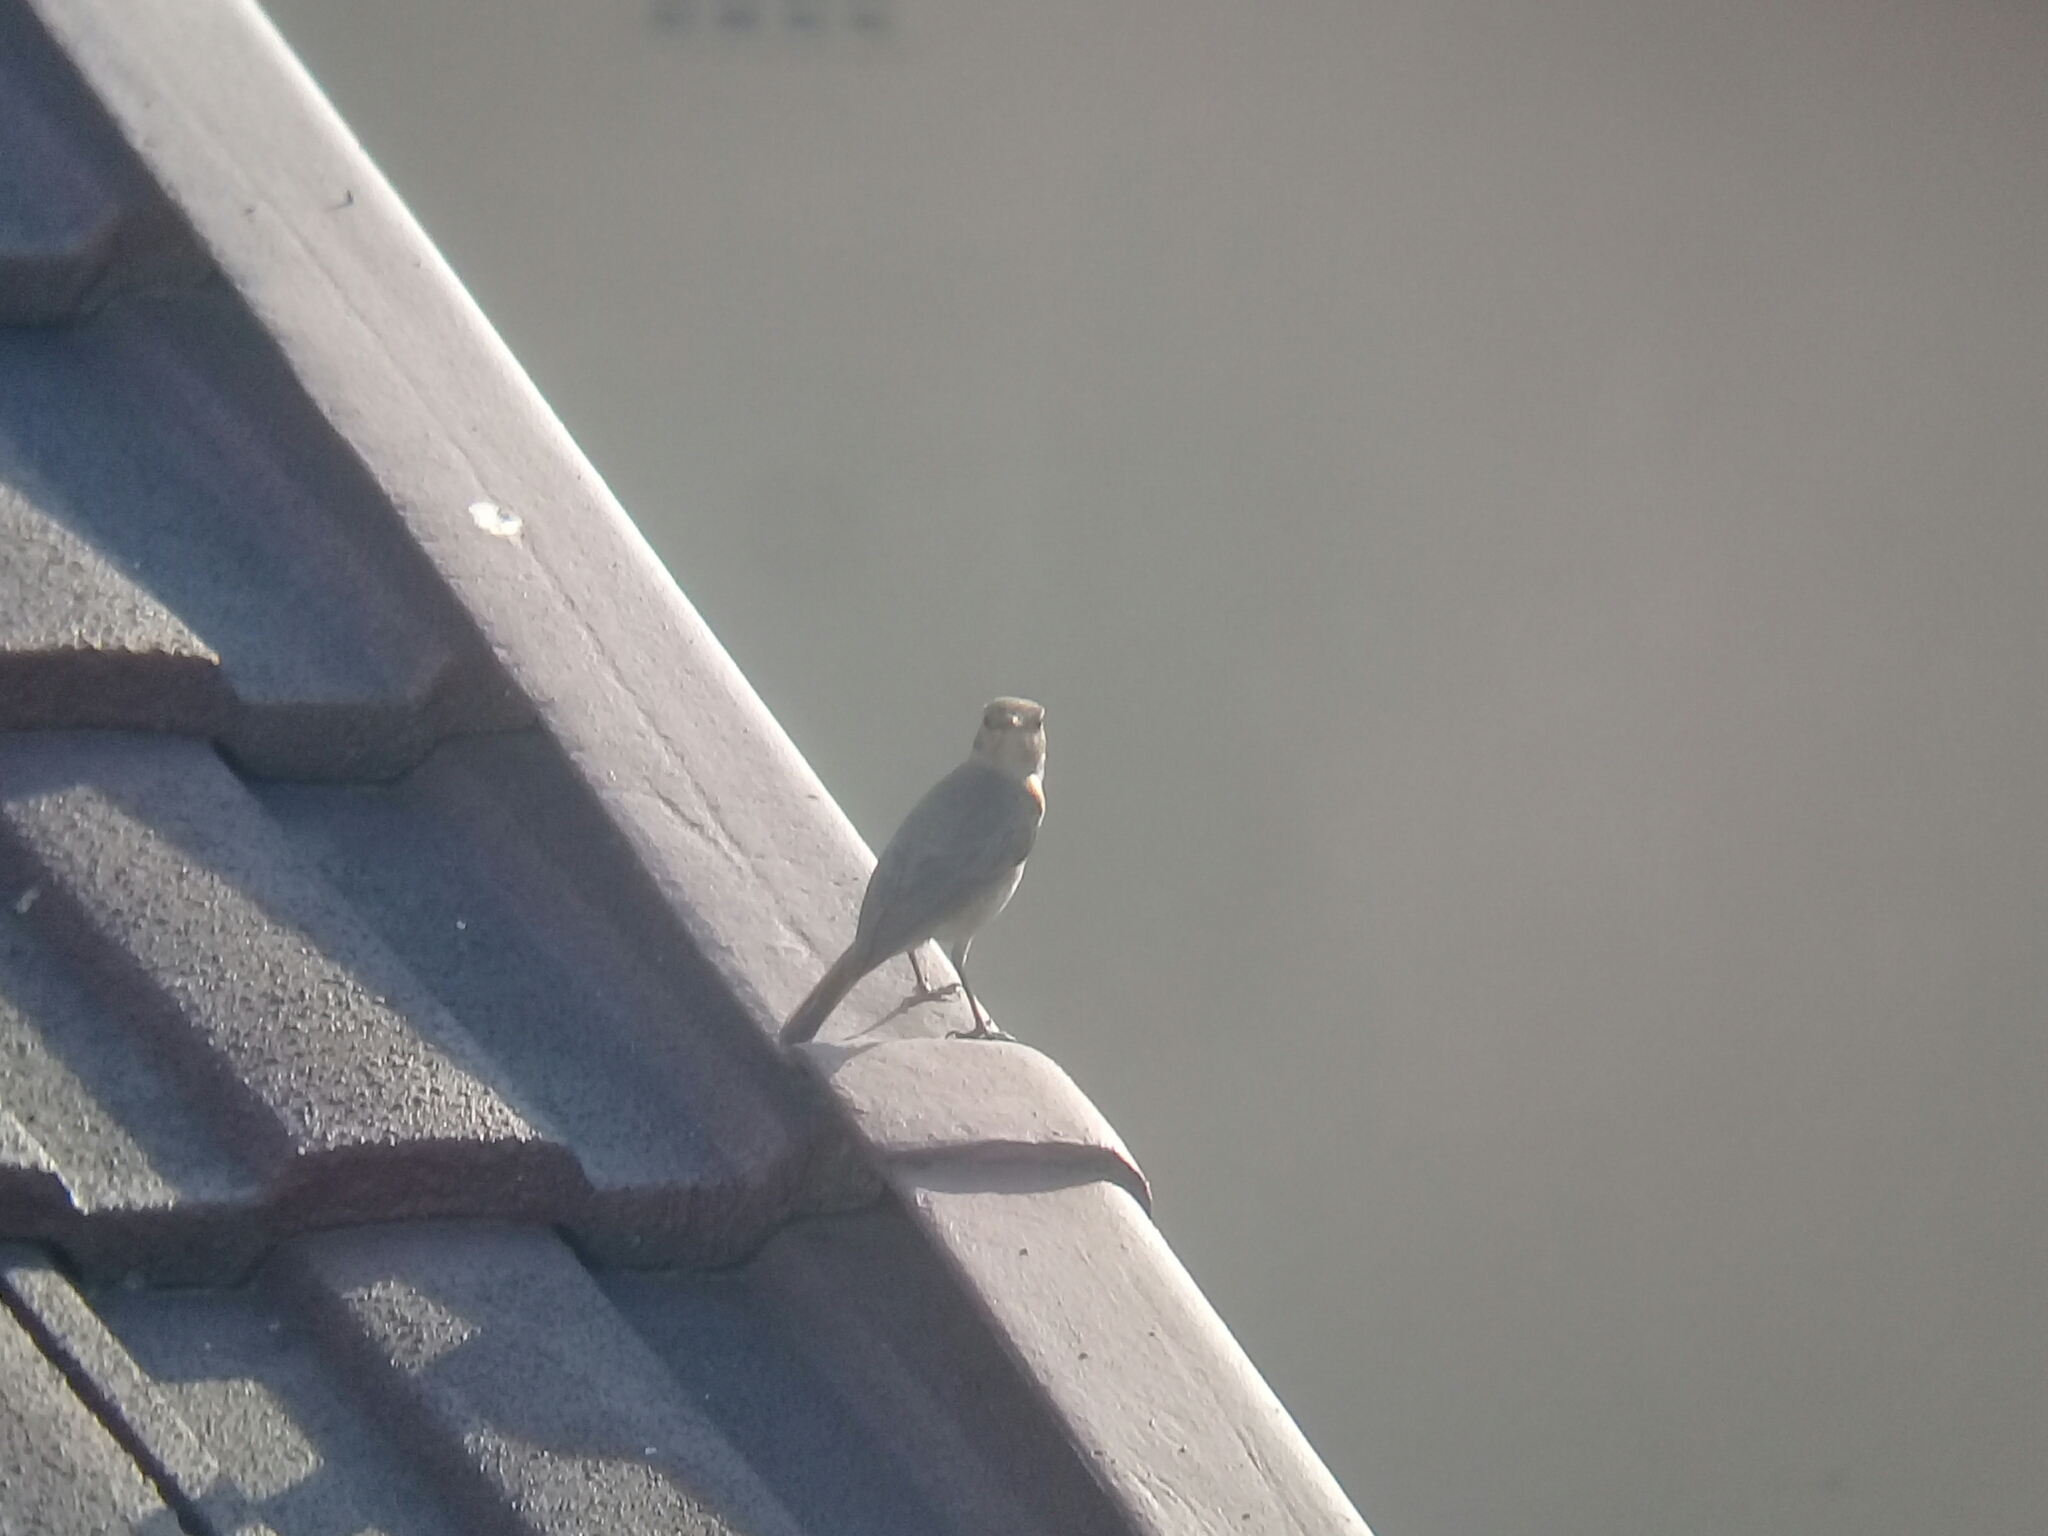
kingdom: Animalia
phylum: Chordata
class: Aves
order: Passeriformes
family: Muscicapidae
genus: Oenanthe
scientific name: Oenanthe familiaris
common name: Familiar chat
